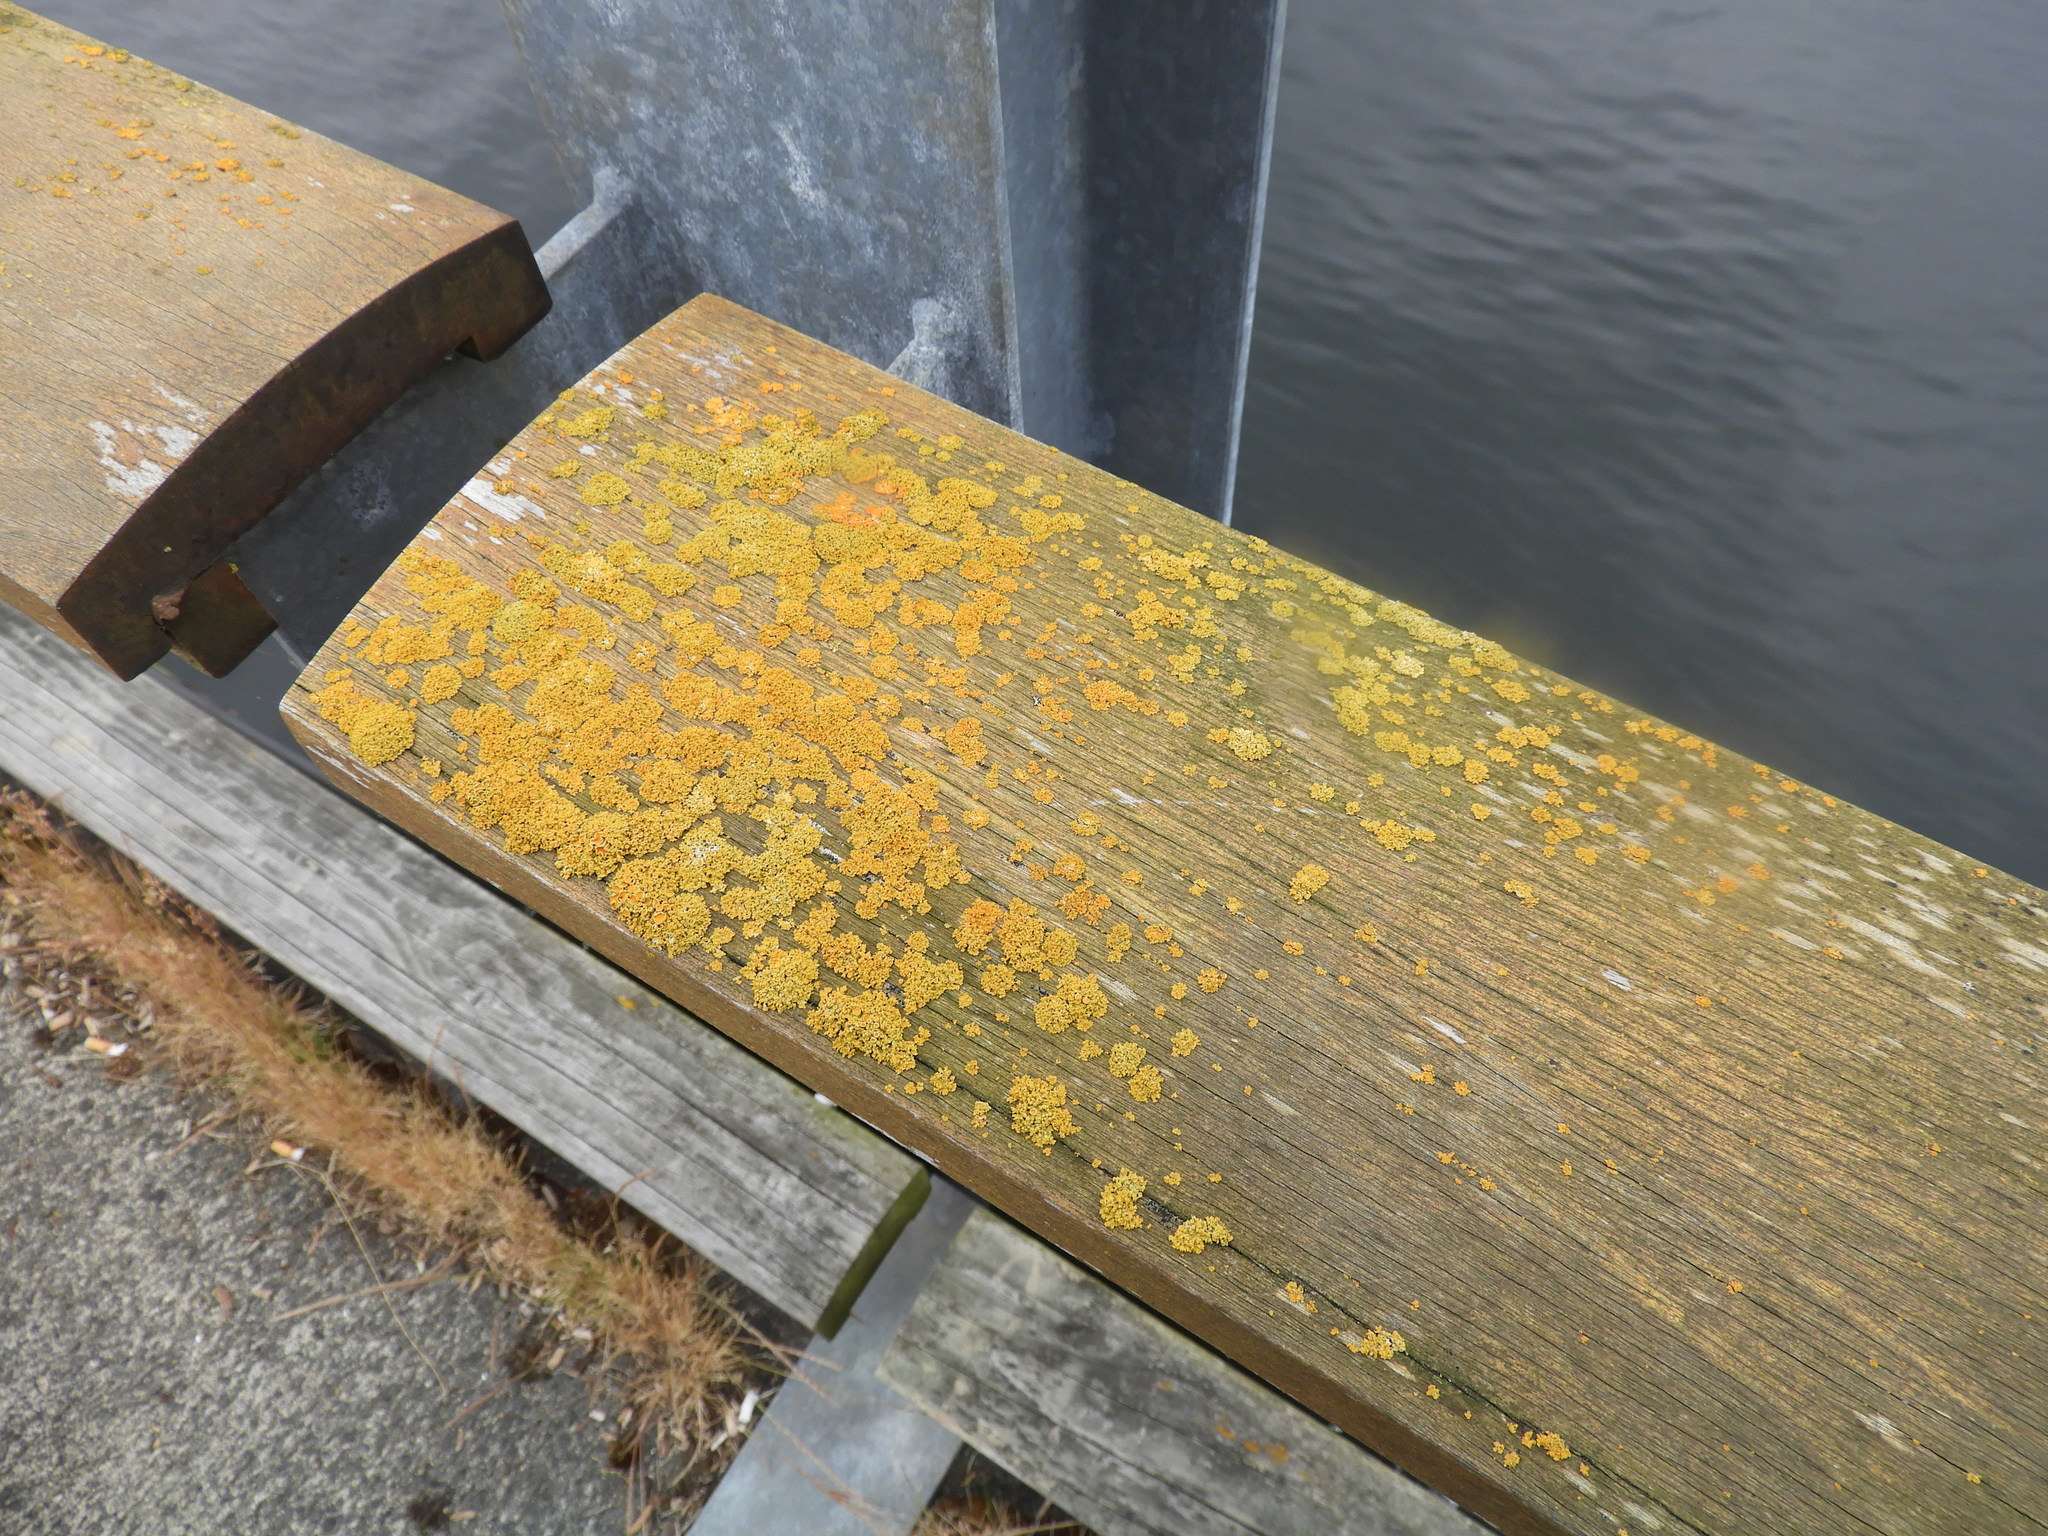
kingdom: Fungi
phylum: Ascomycota
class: Lecanoromycetes
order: Teloschistales
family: Teloschistaceae
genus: Xanthoria
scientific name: Xanthoria parietina
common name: Common orange lichen
